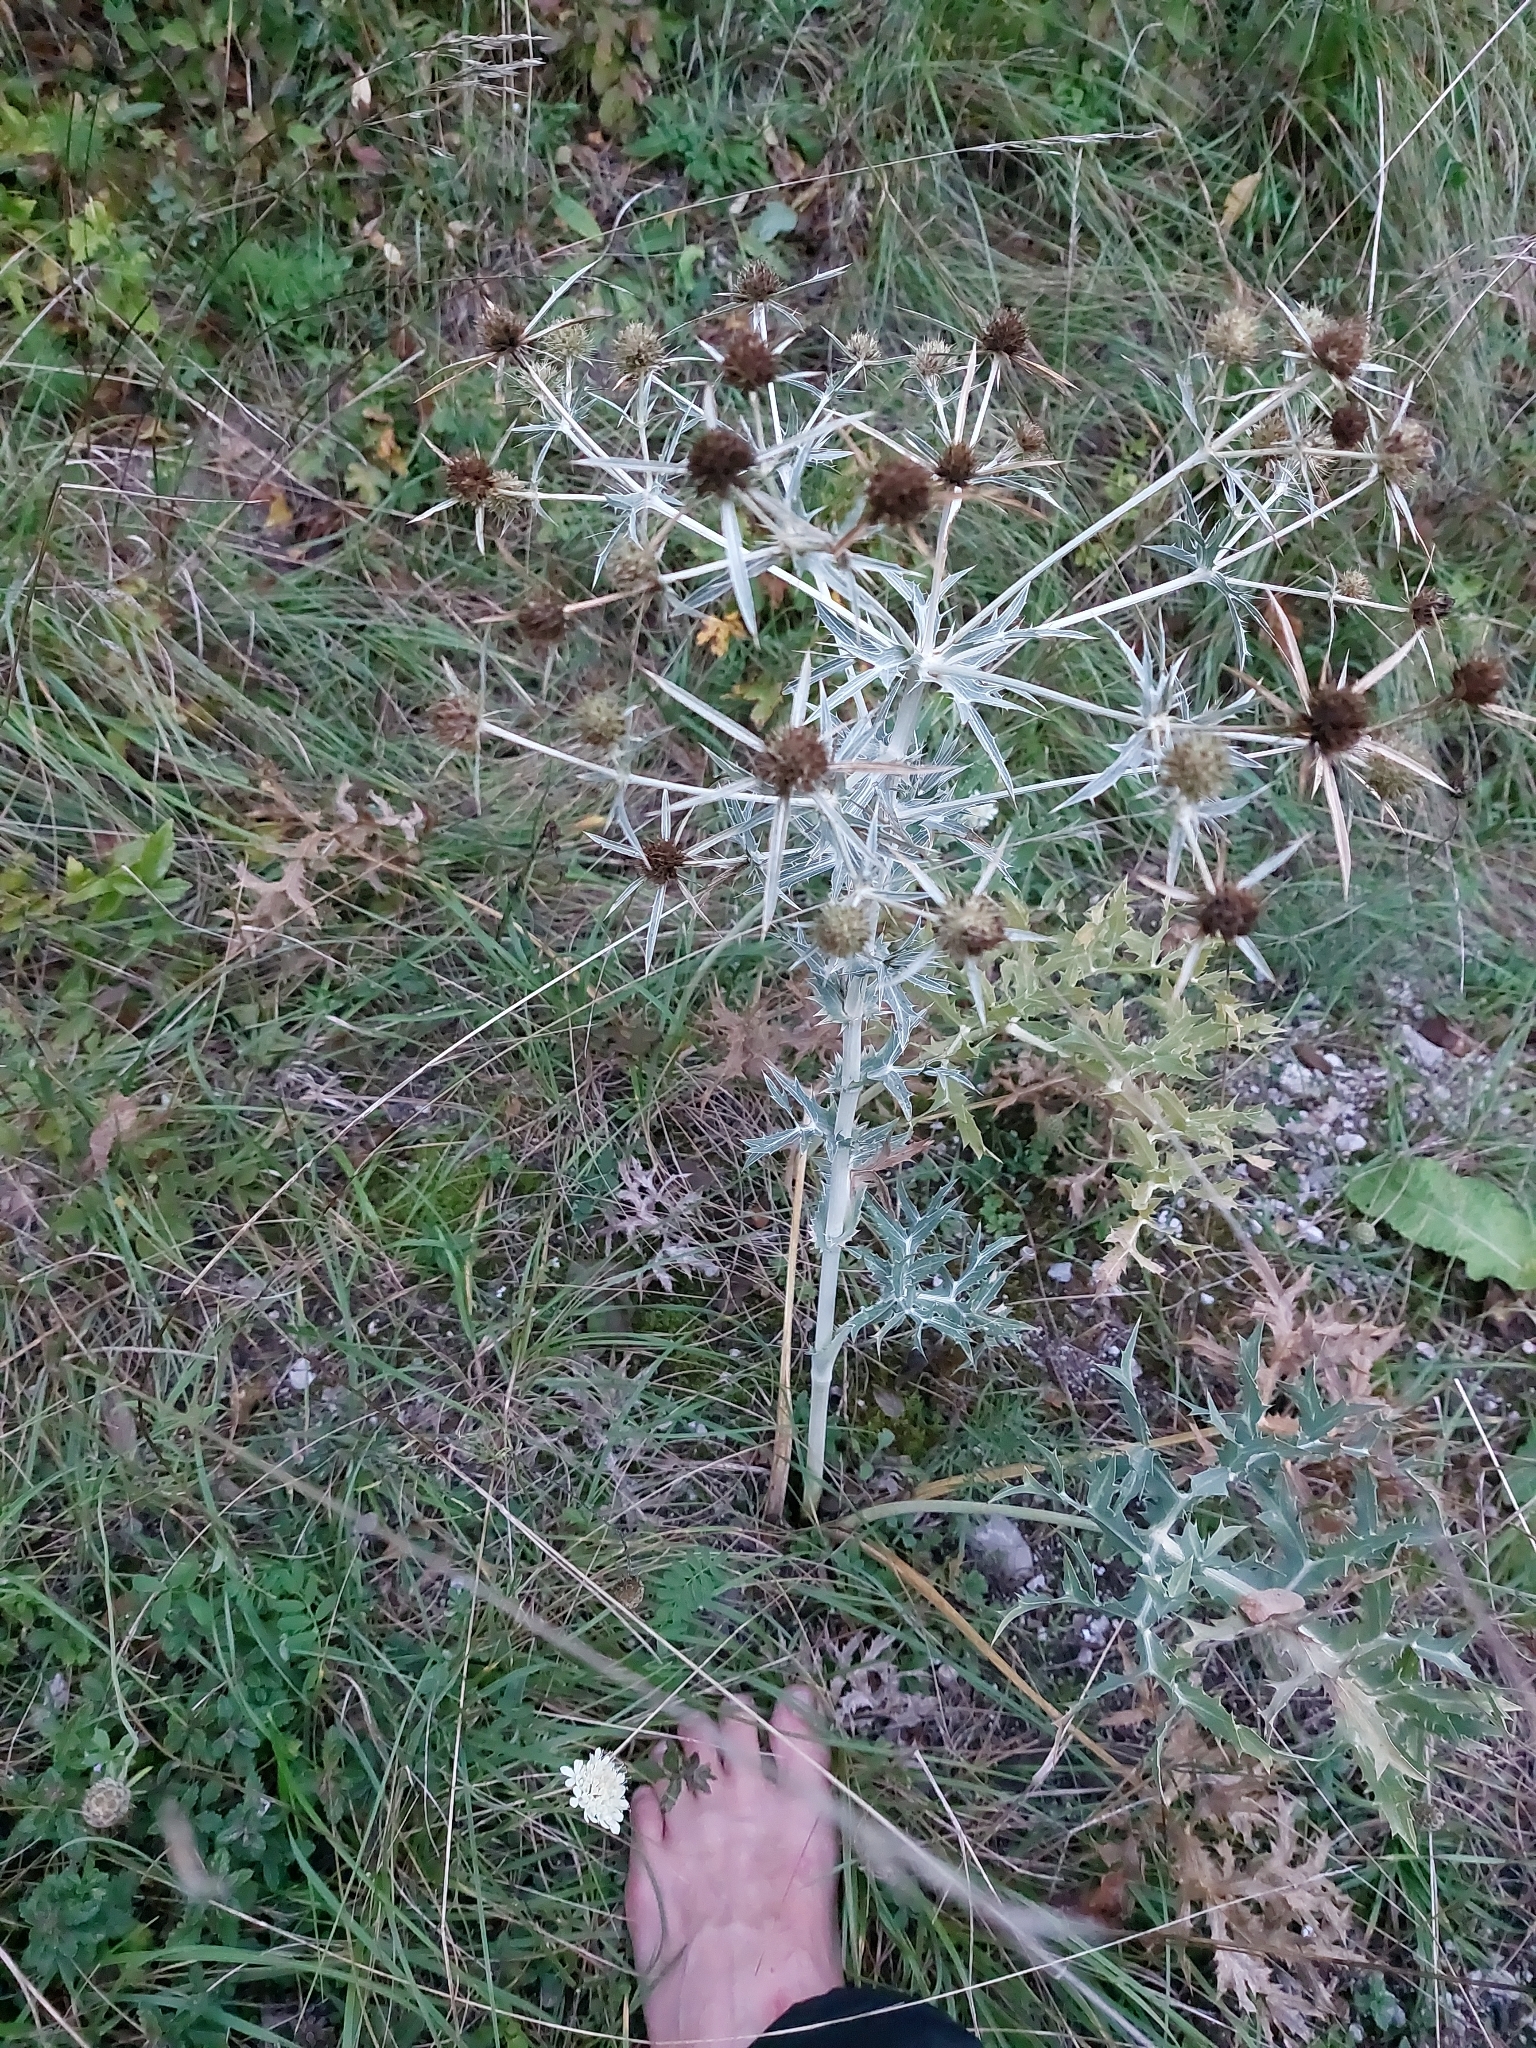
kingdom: Plantae
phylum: Tracheophyta
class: Magnoliopsida
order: Apiales
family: Apiaceae
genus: Eryngium
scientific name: Eryngium campestre
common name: Field eryngo
